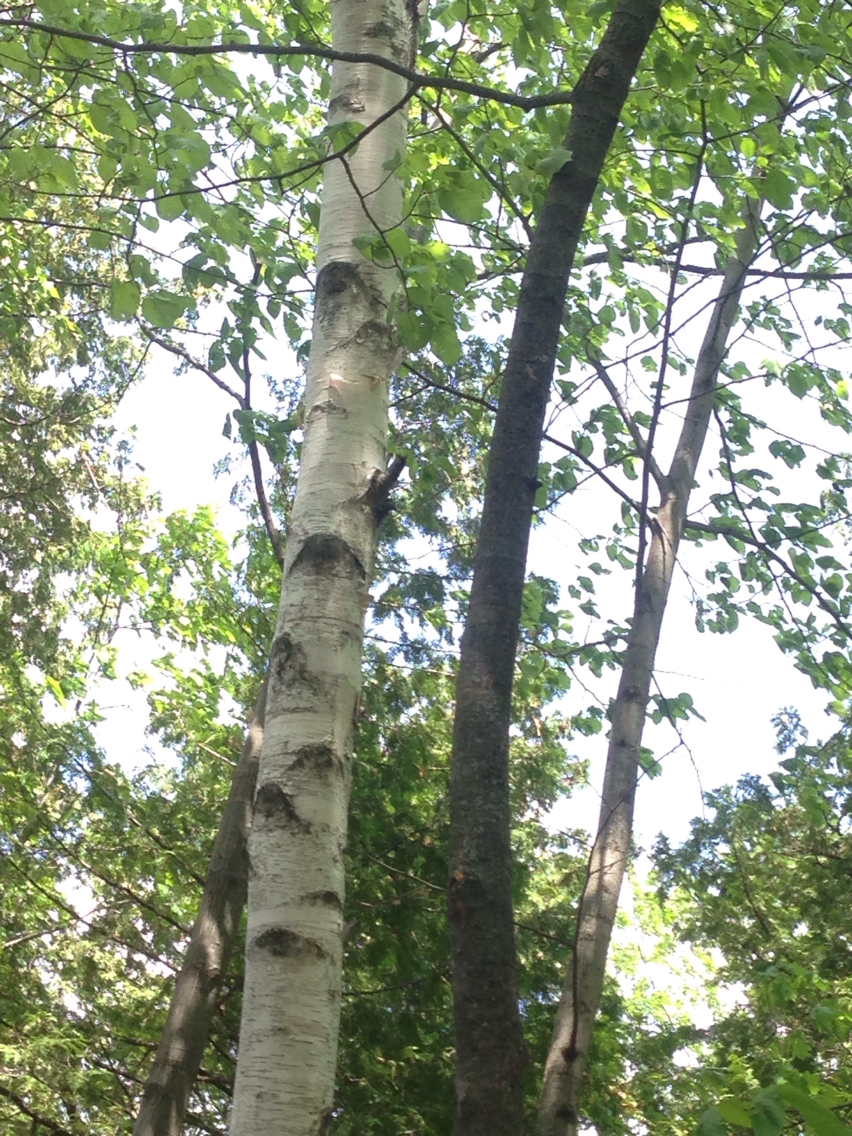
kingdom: Plantae
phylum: Tracheophyta
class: Magnoliopsida
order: Fagales
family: Betulaceae
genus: Betula
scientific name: Betula papyrifera
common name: Paper birch
